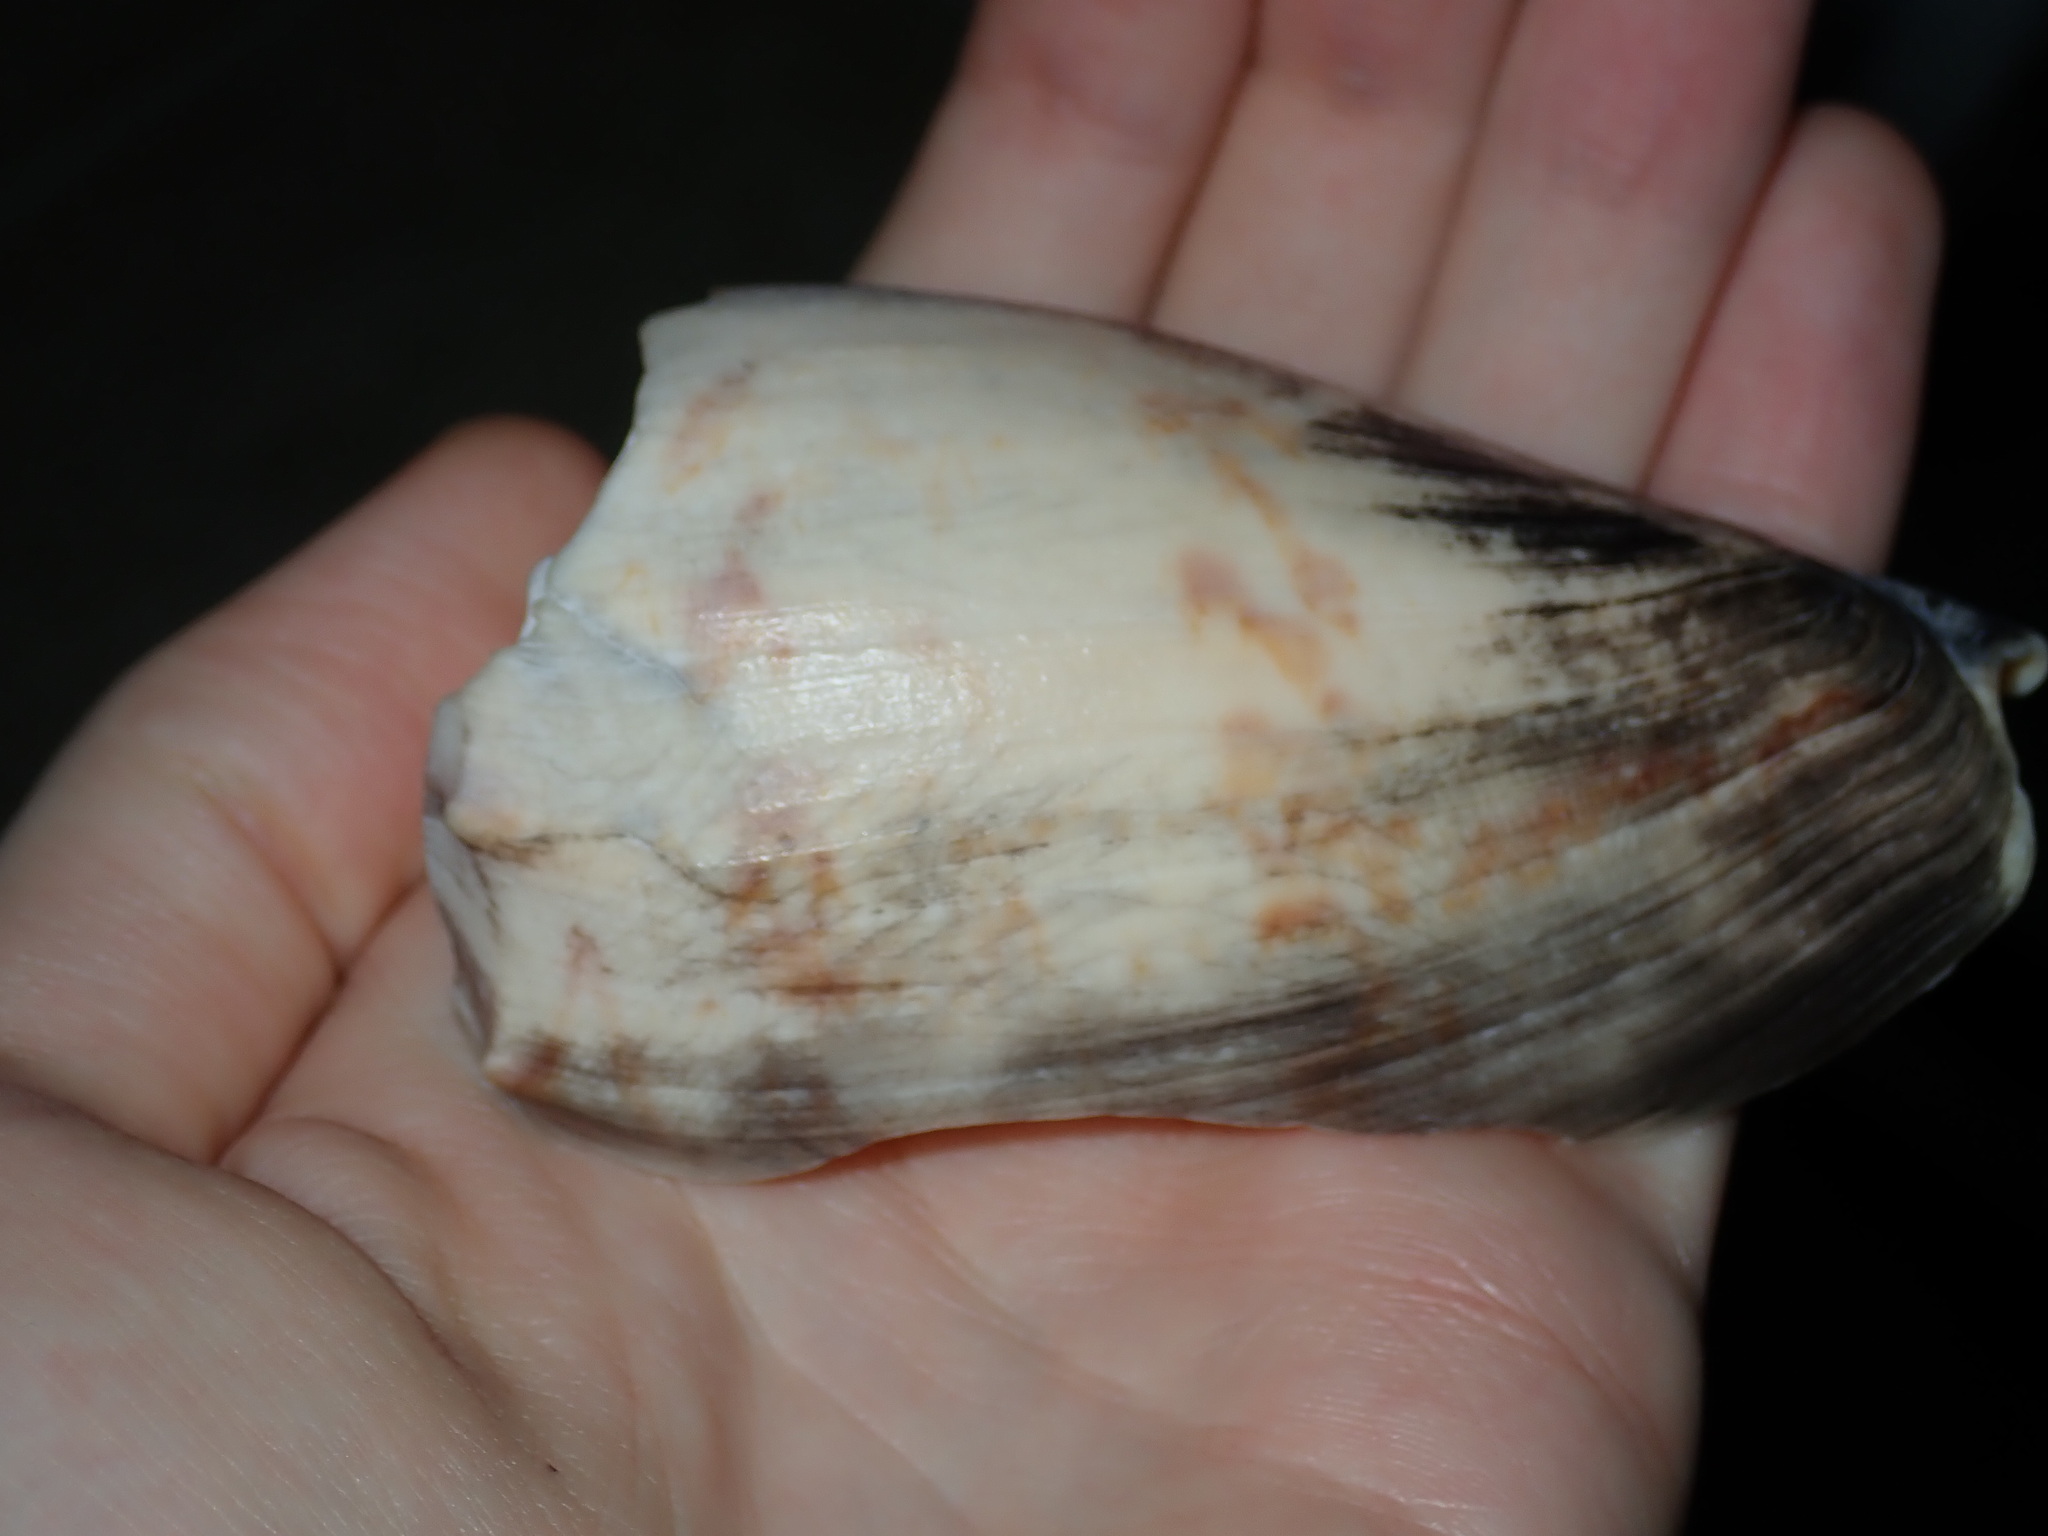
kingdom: Animalia
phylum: Mollusca
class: Gastropoda
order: Neogastropoda
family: Volutidae
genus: Amoria
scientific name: Amoria hunteri
